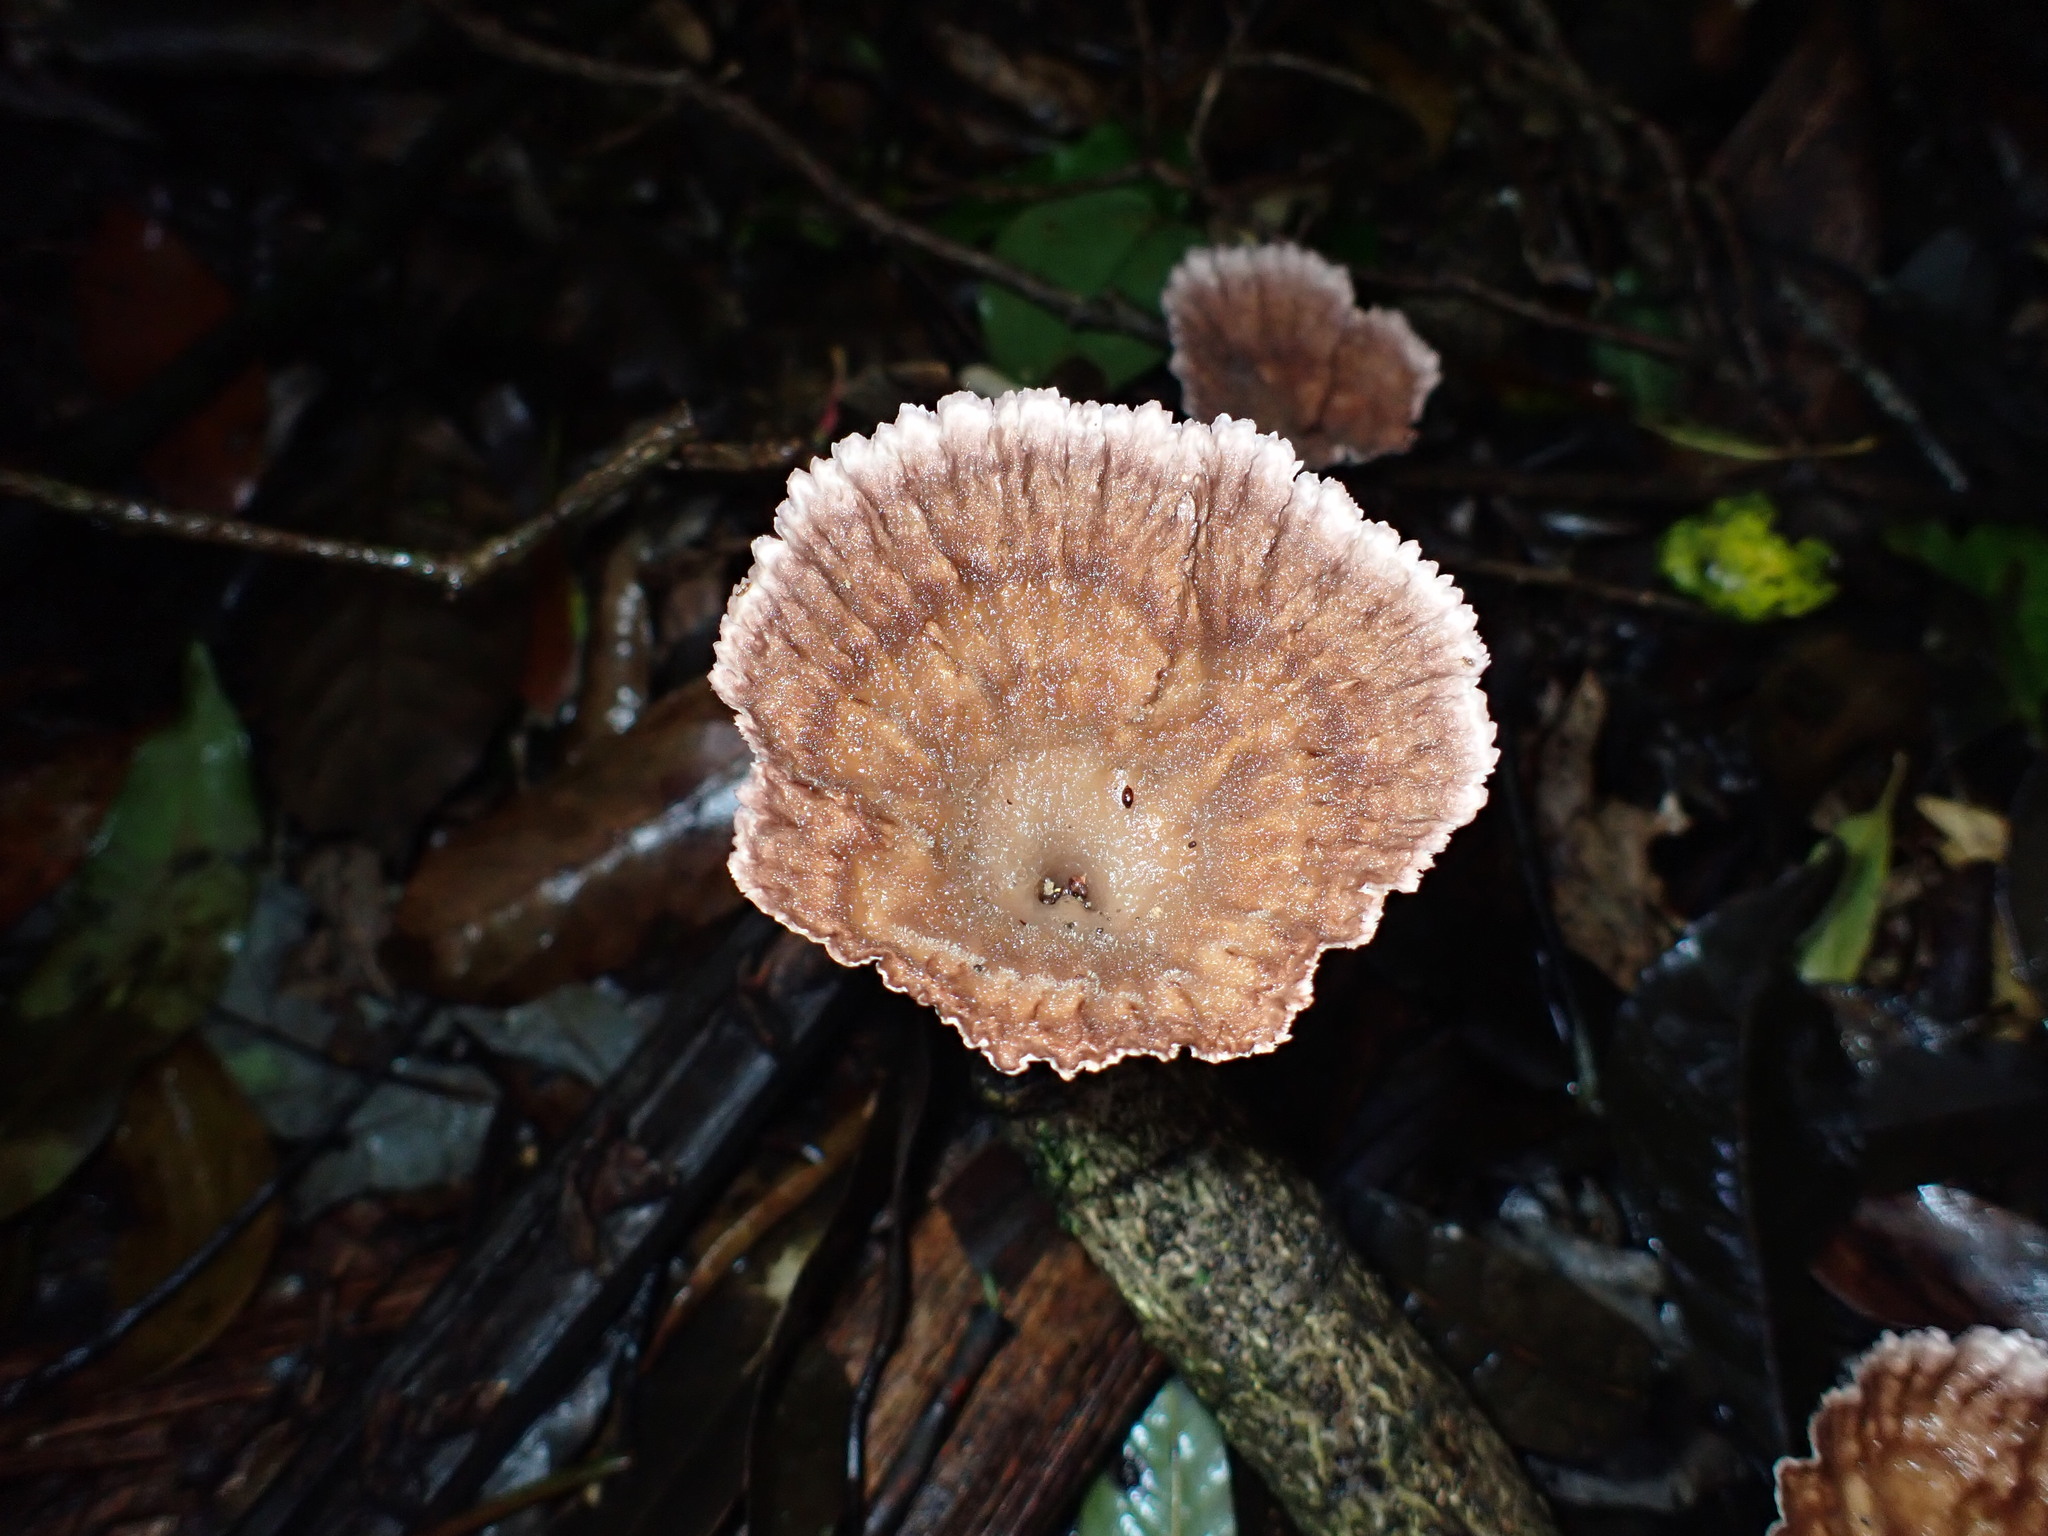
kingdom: Fungi
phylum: Basidiomycota
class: Agaricomycetes
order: Polyporales
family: Panaceae
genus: Cymatoderma
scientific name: Cymatoderma elegans
